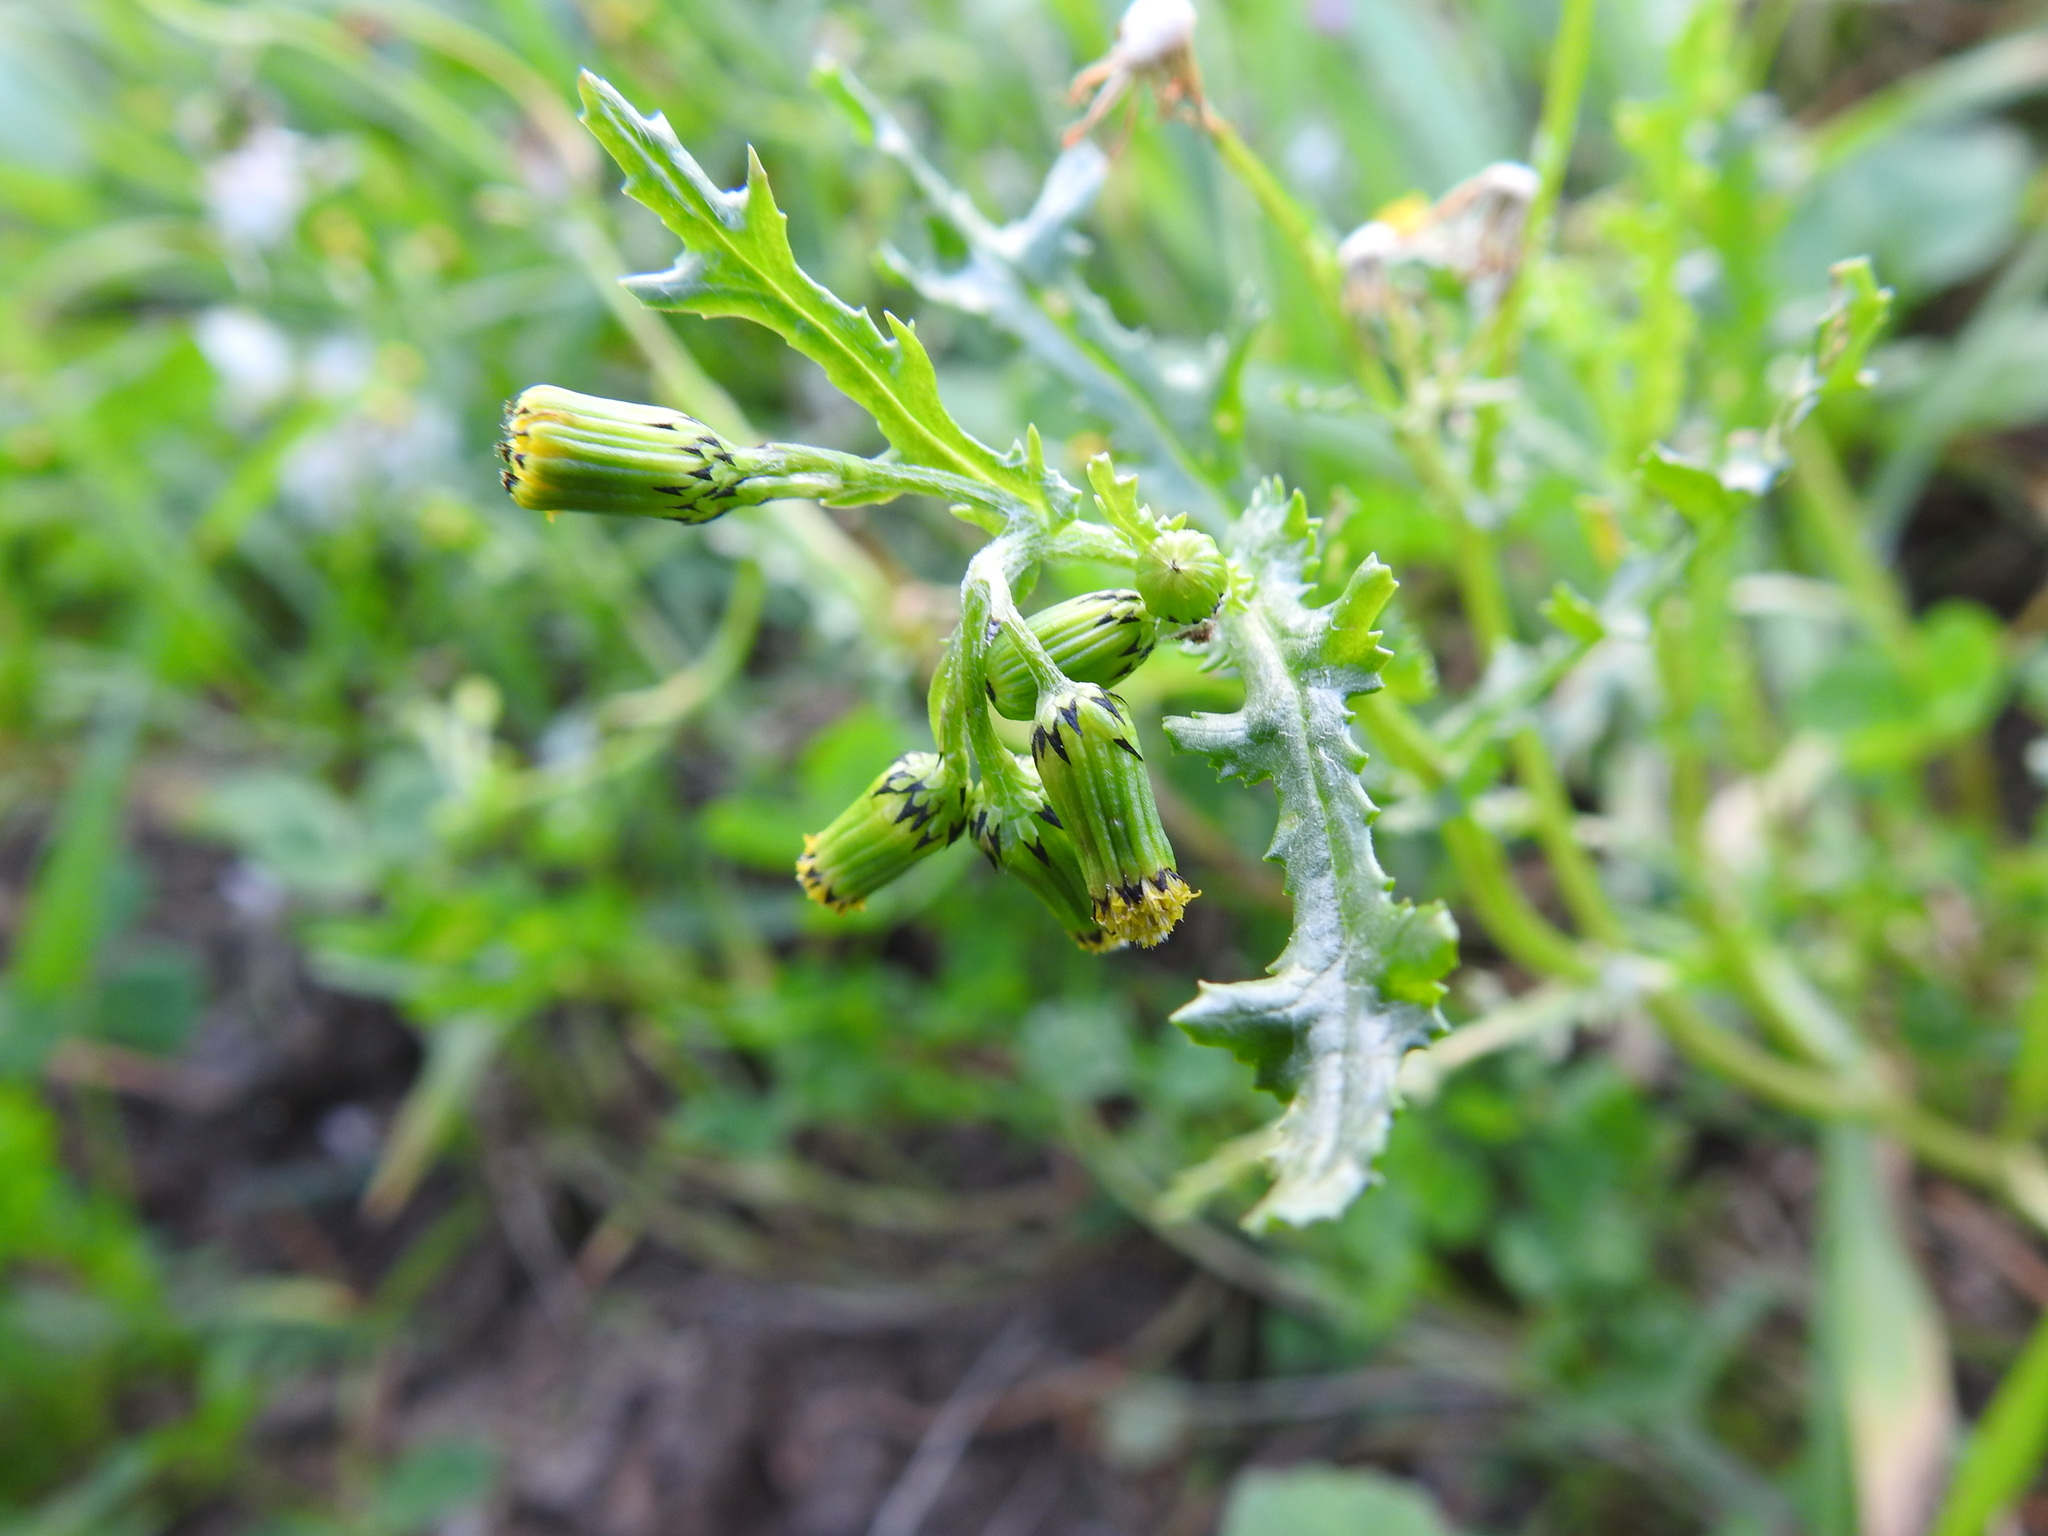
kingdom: Plantae
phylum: Tracheophyta
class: Magnoliopsida
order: Asterales
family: Asteraceae
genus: Senecio
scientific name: Senecio vulgaris
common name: Old-man-in-the-spring
